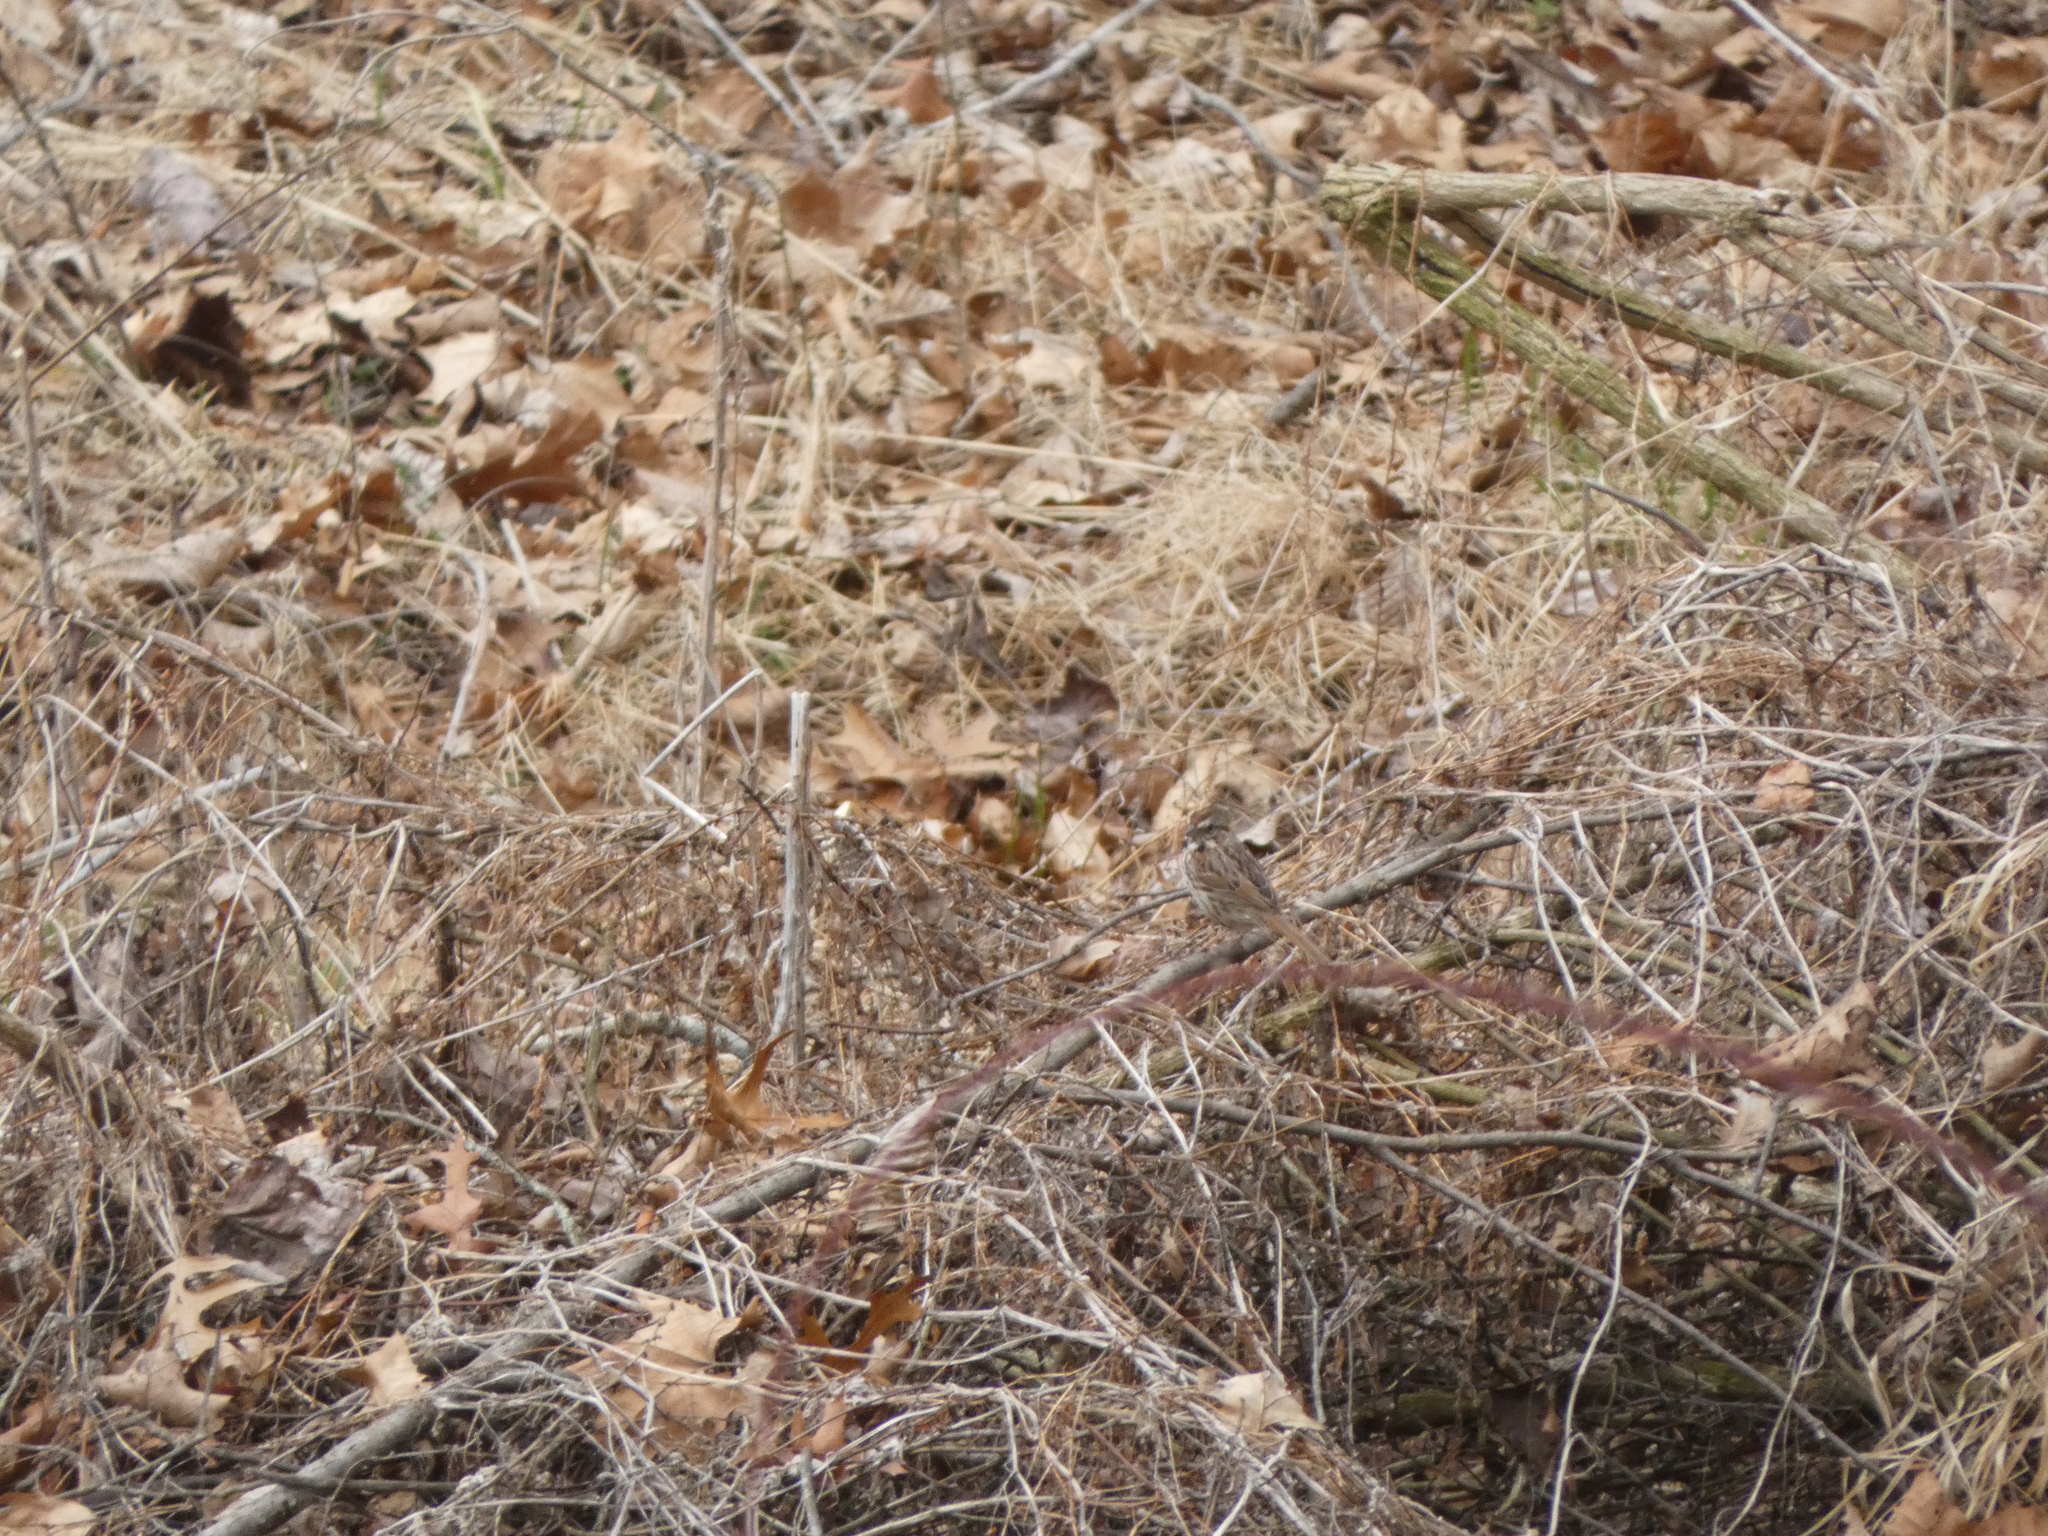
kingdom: Animalia
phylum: Chordata
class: Aves
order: Passeriformes
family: Passerellidae
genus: Melospiza
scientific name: Melospiza melodia
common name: Song sparrow
